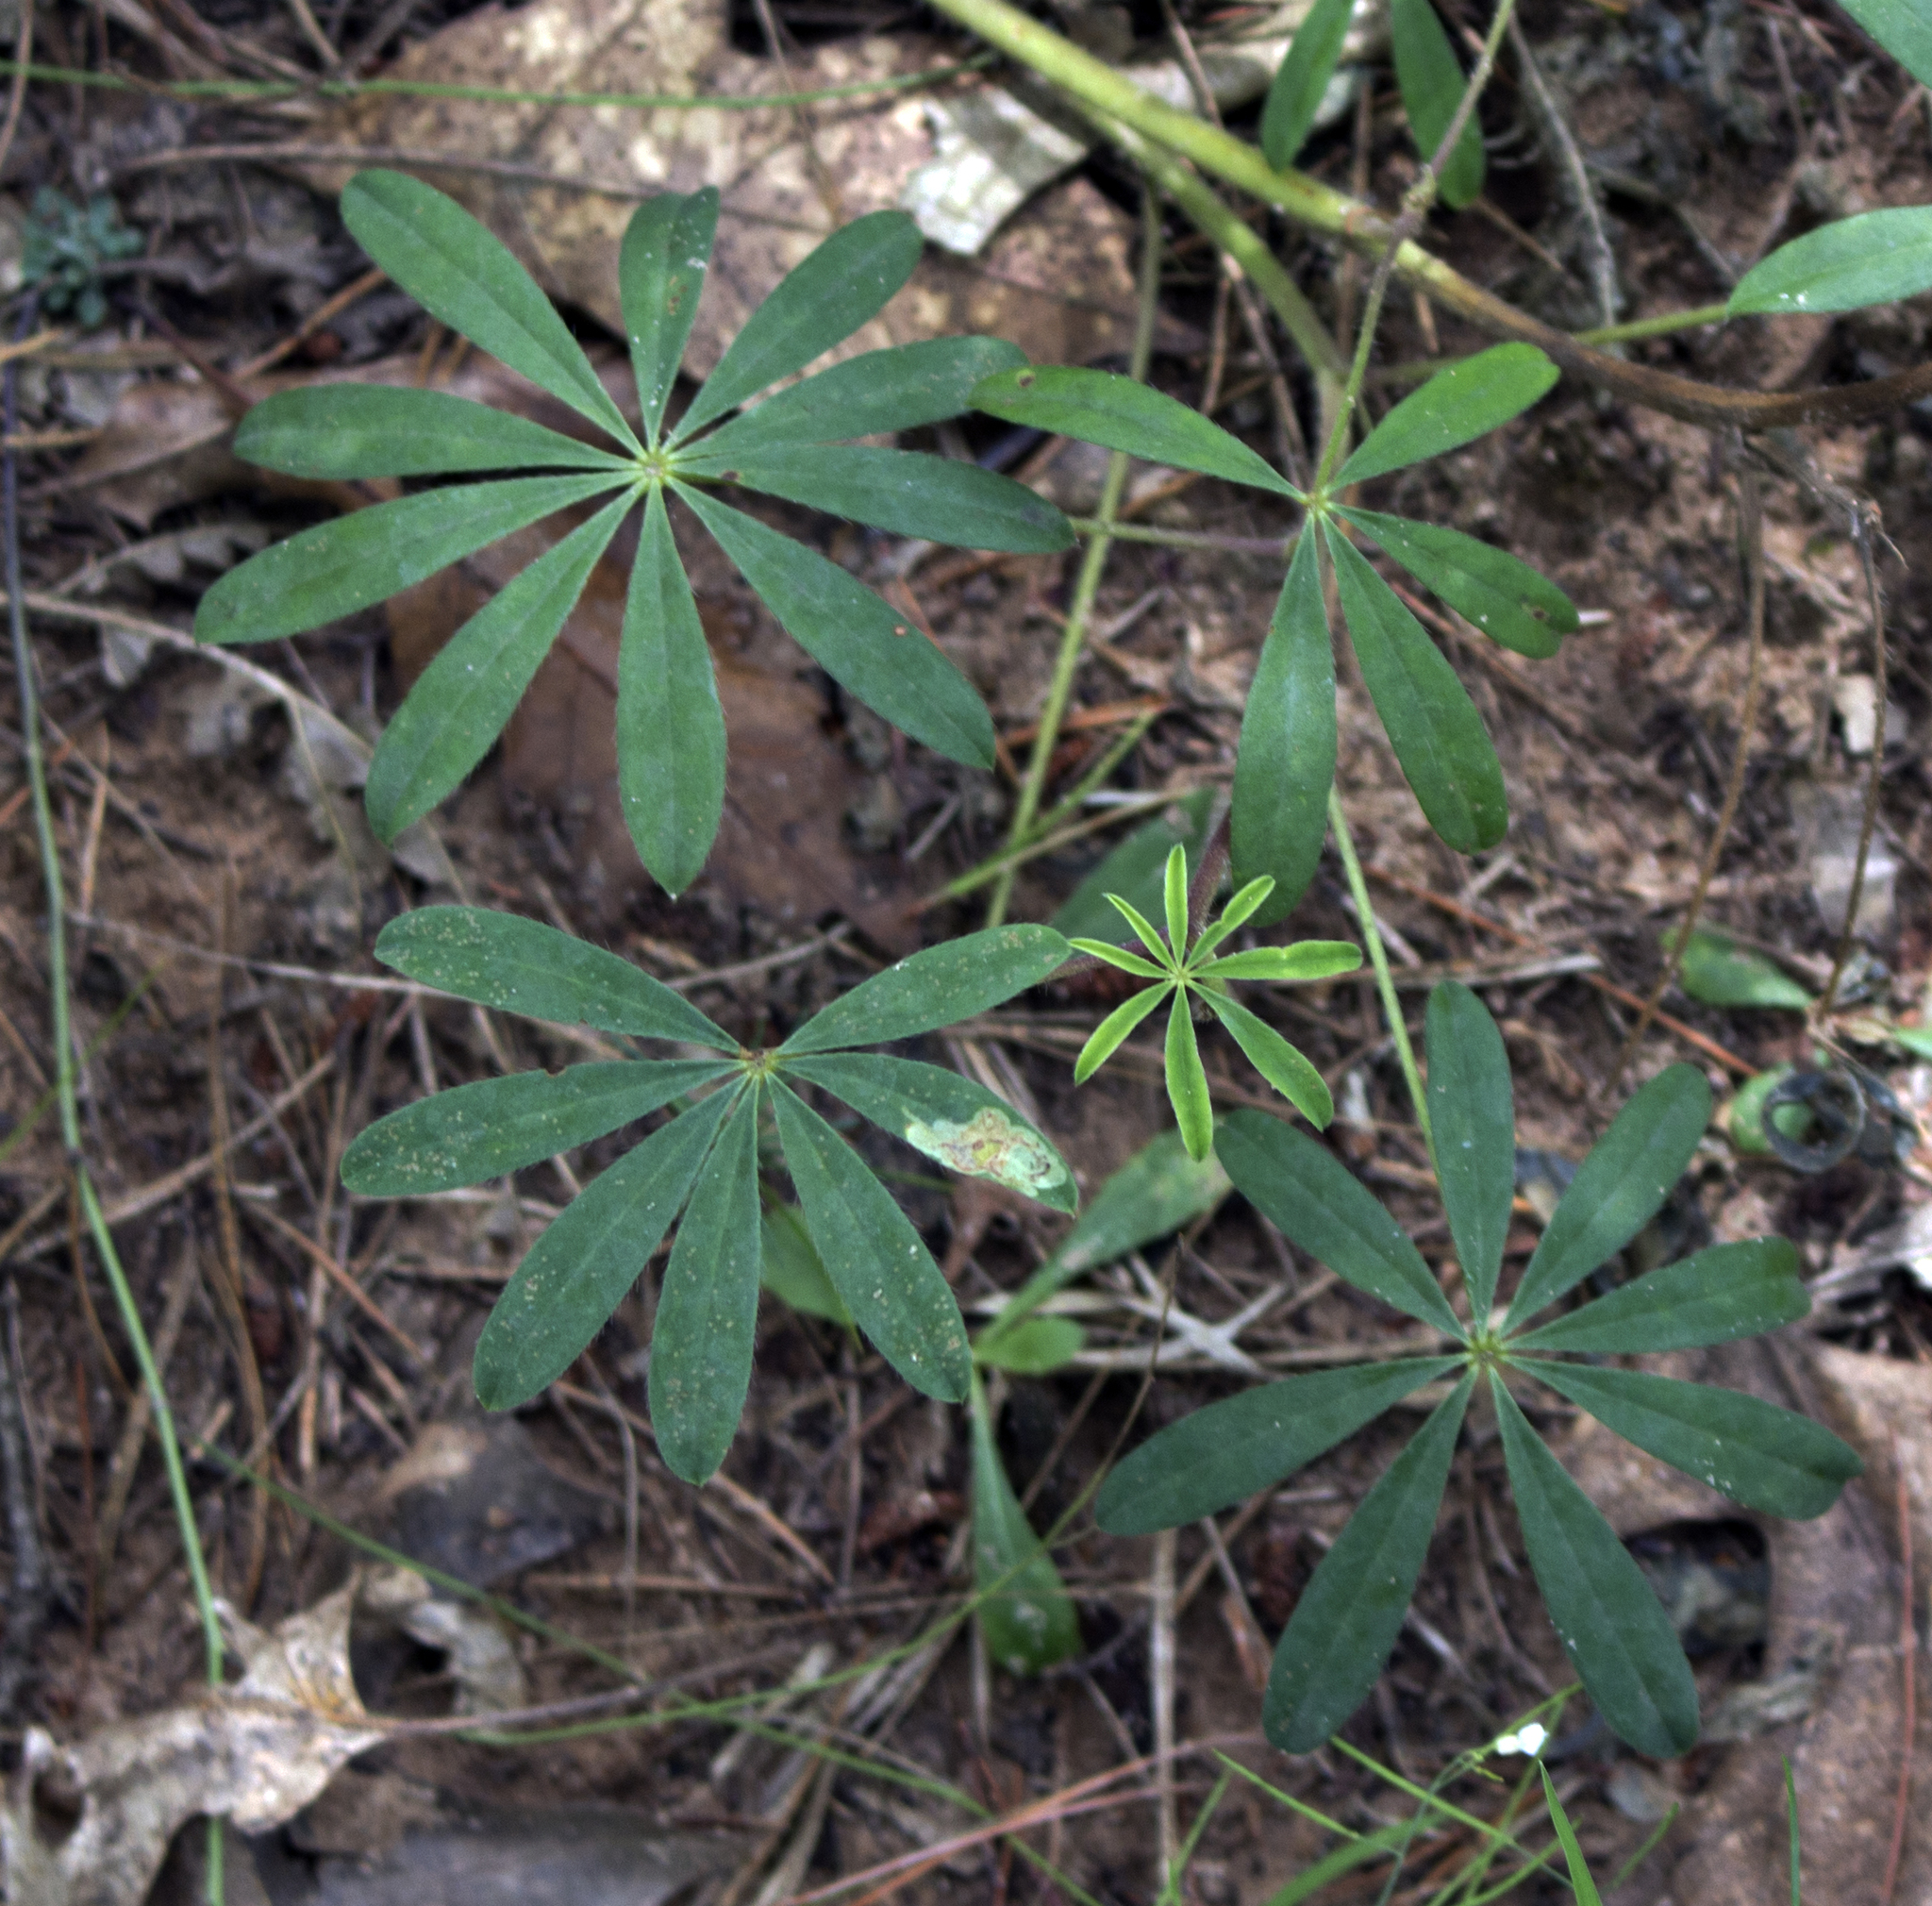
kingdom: Plantae
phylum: Tracheophyta
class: Magnoliopsida
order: Fabales
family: Fabaceae
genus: Lupinus
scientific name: Lupinus perennis
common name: Sundial lupine
